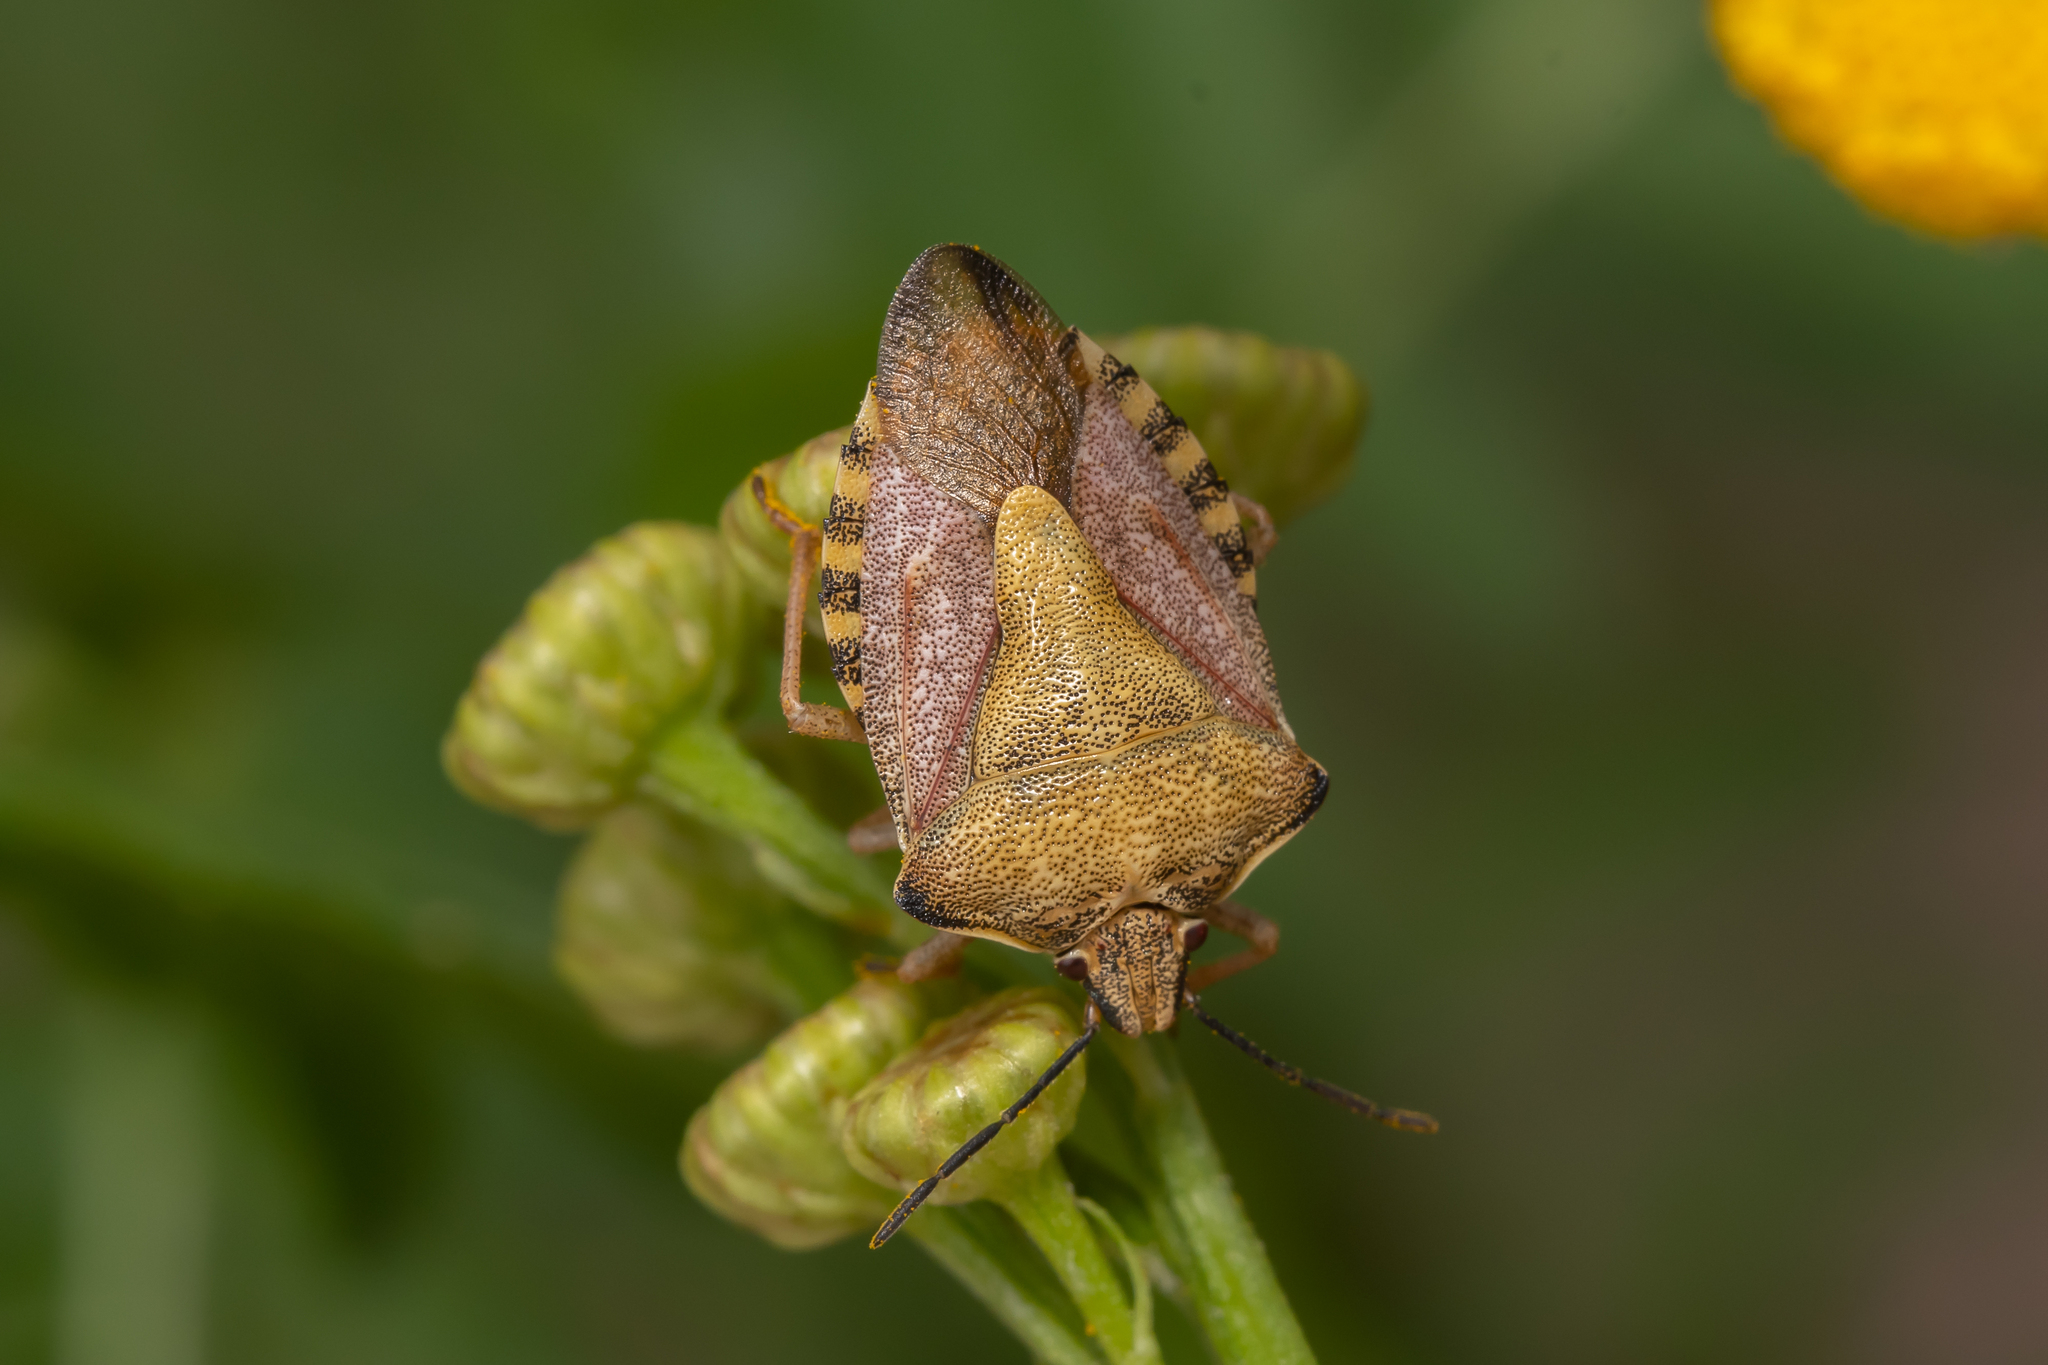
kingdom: Animalia
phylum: Arthropoda
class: Insecta
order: Hemiptera
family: Pentatomidae
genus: Carpocoris
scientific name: Carpocoris purpureipennis
